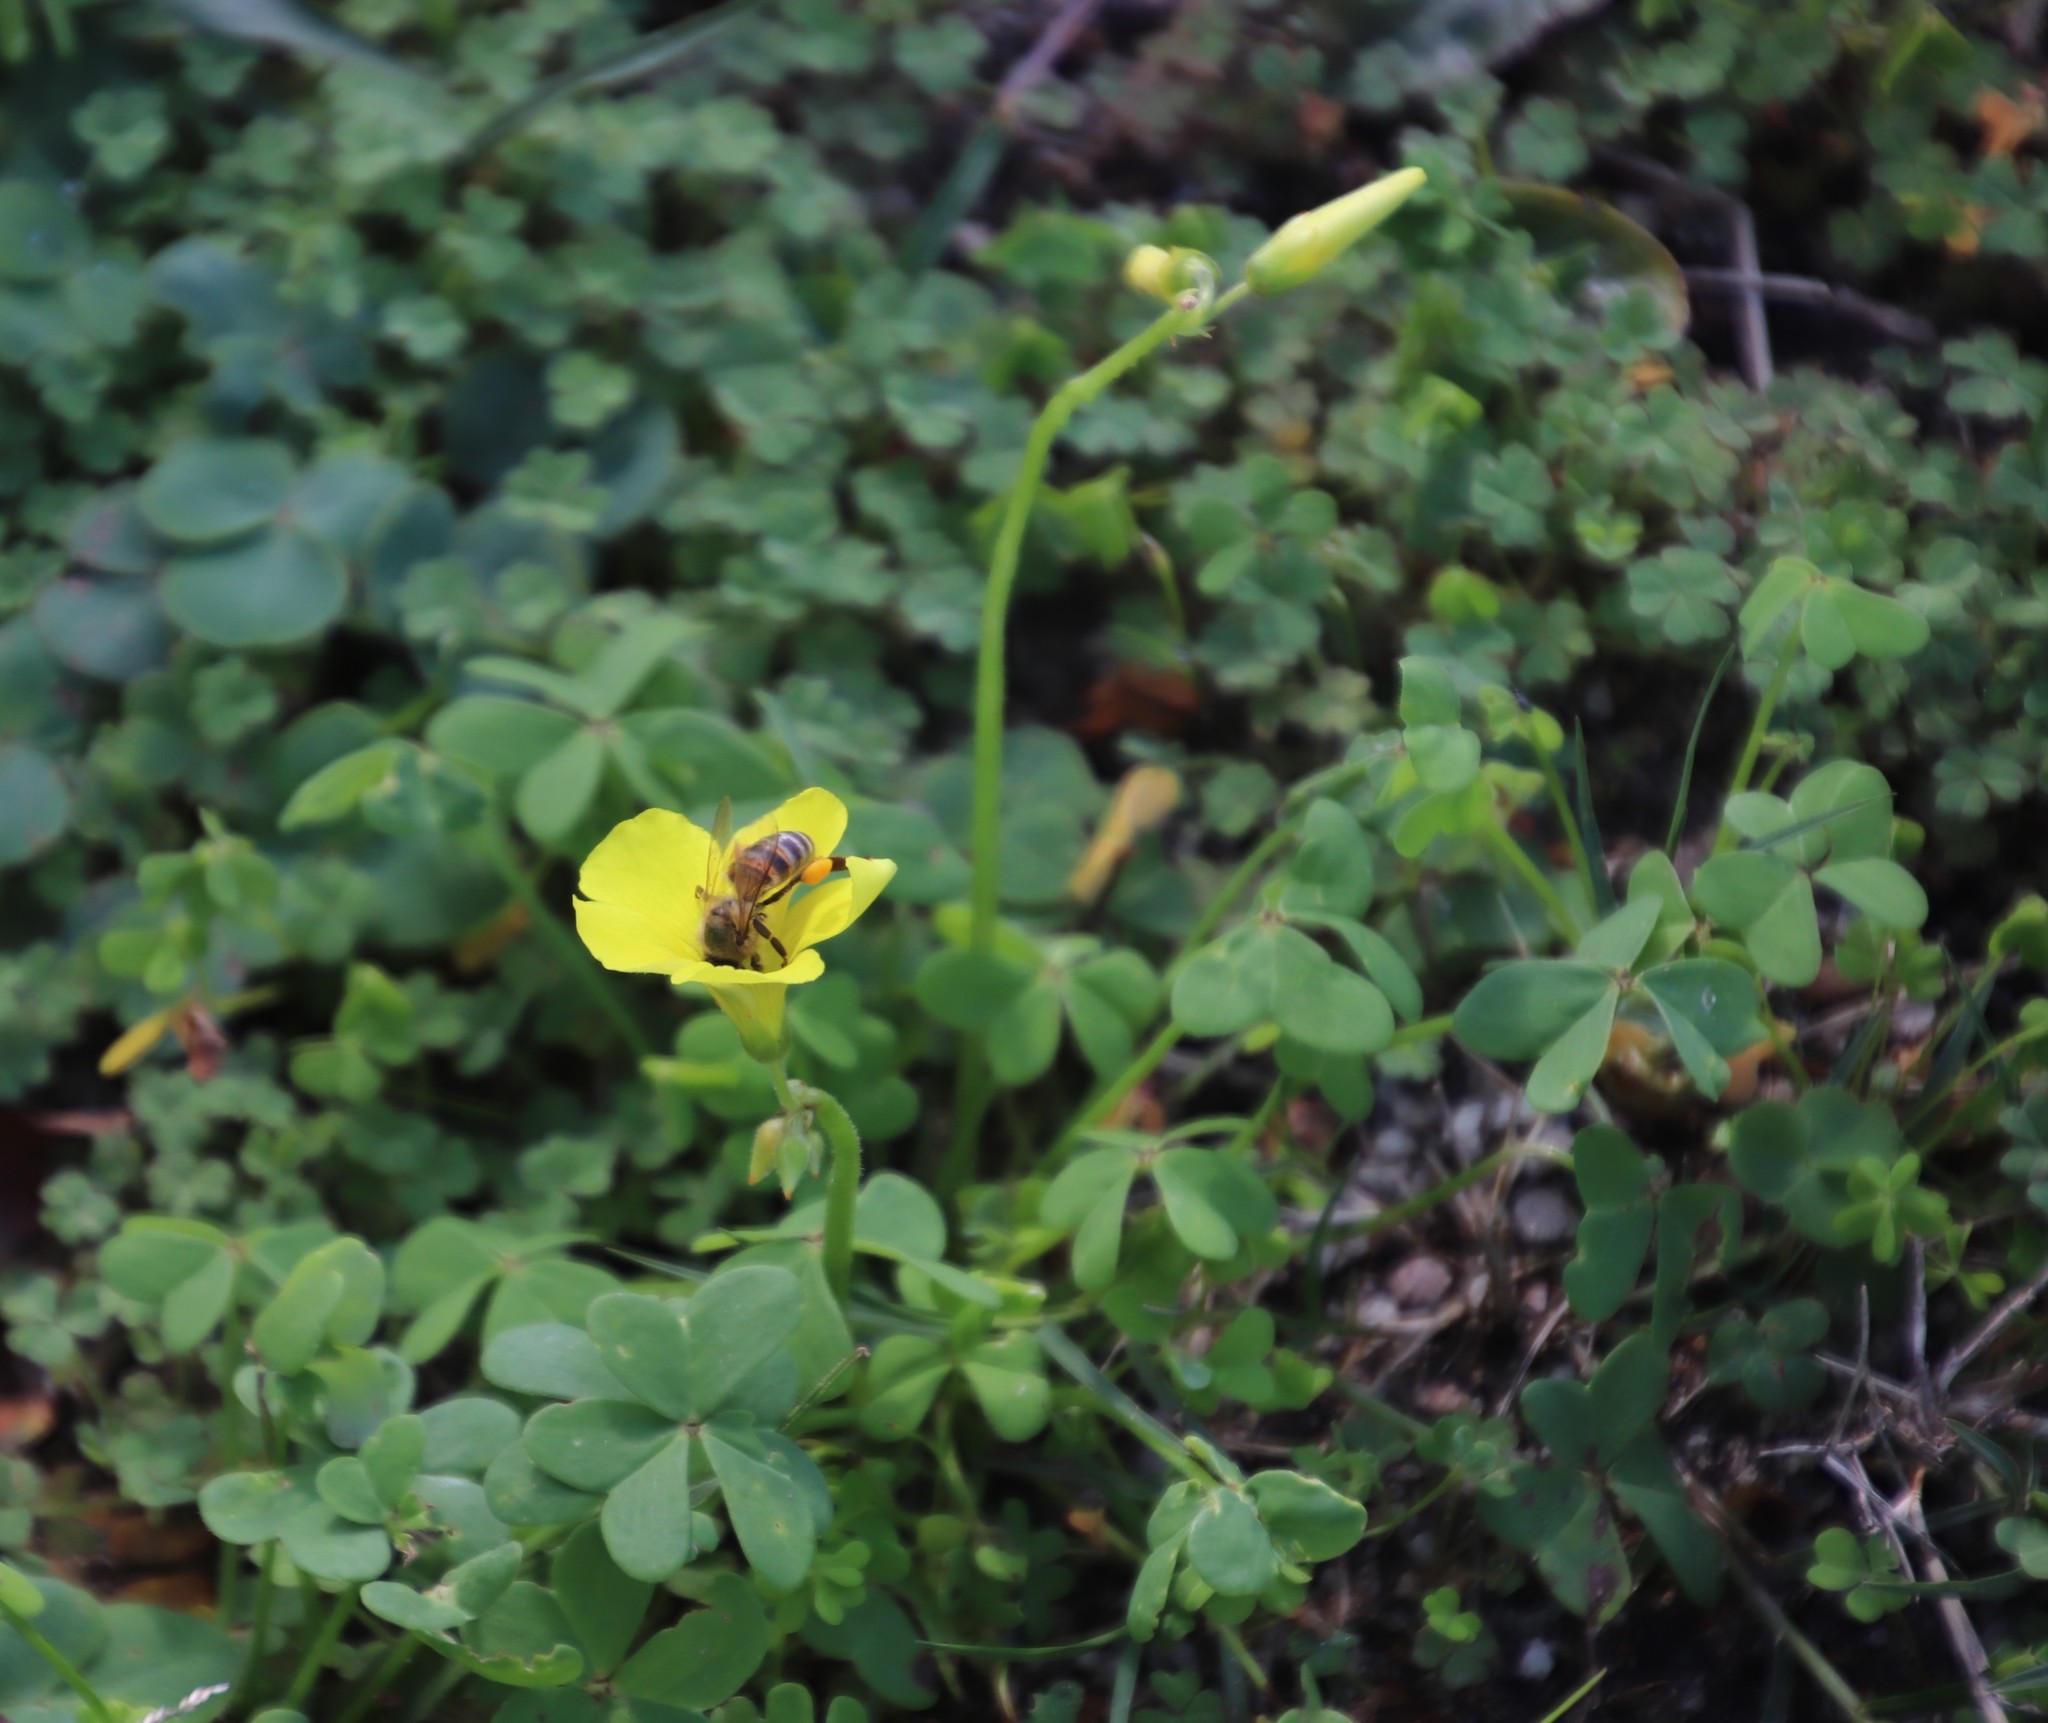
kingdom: Plantae
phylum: Tracheophyta
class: Magnoliopsida
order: Oxalidales
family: Oxalidaceae
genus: Oxalis
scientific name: Oxalis pes-caprae
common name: Bermuda-buttercup
